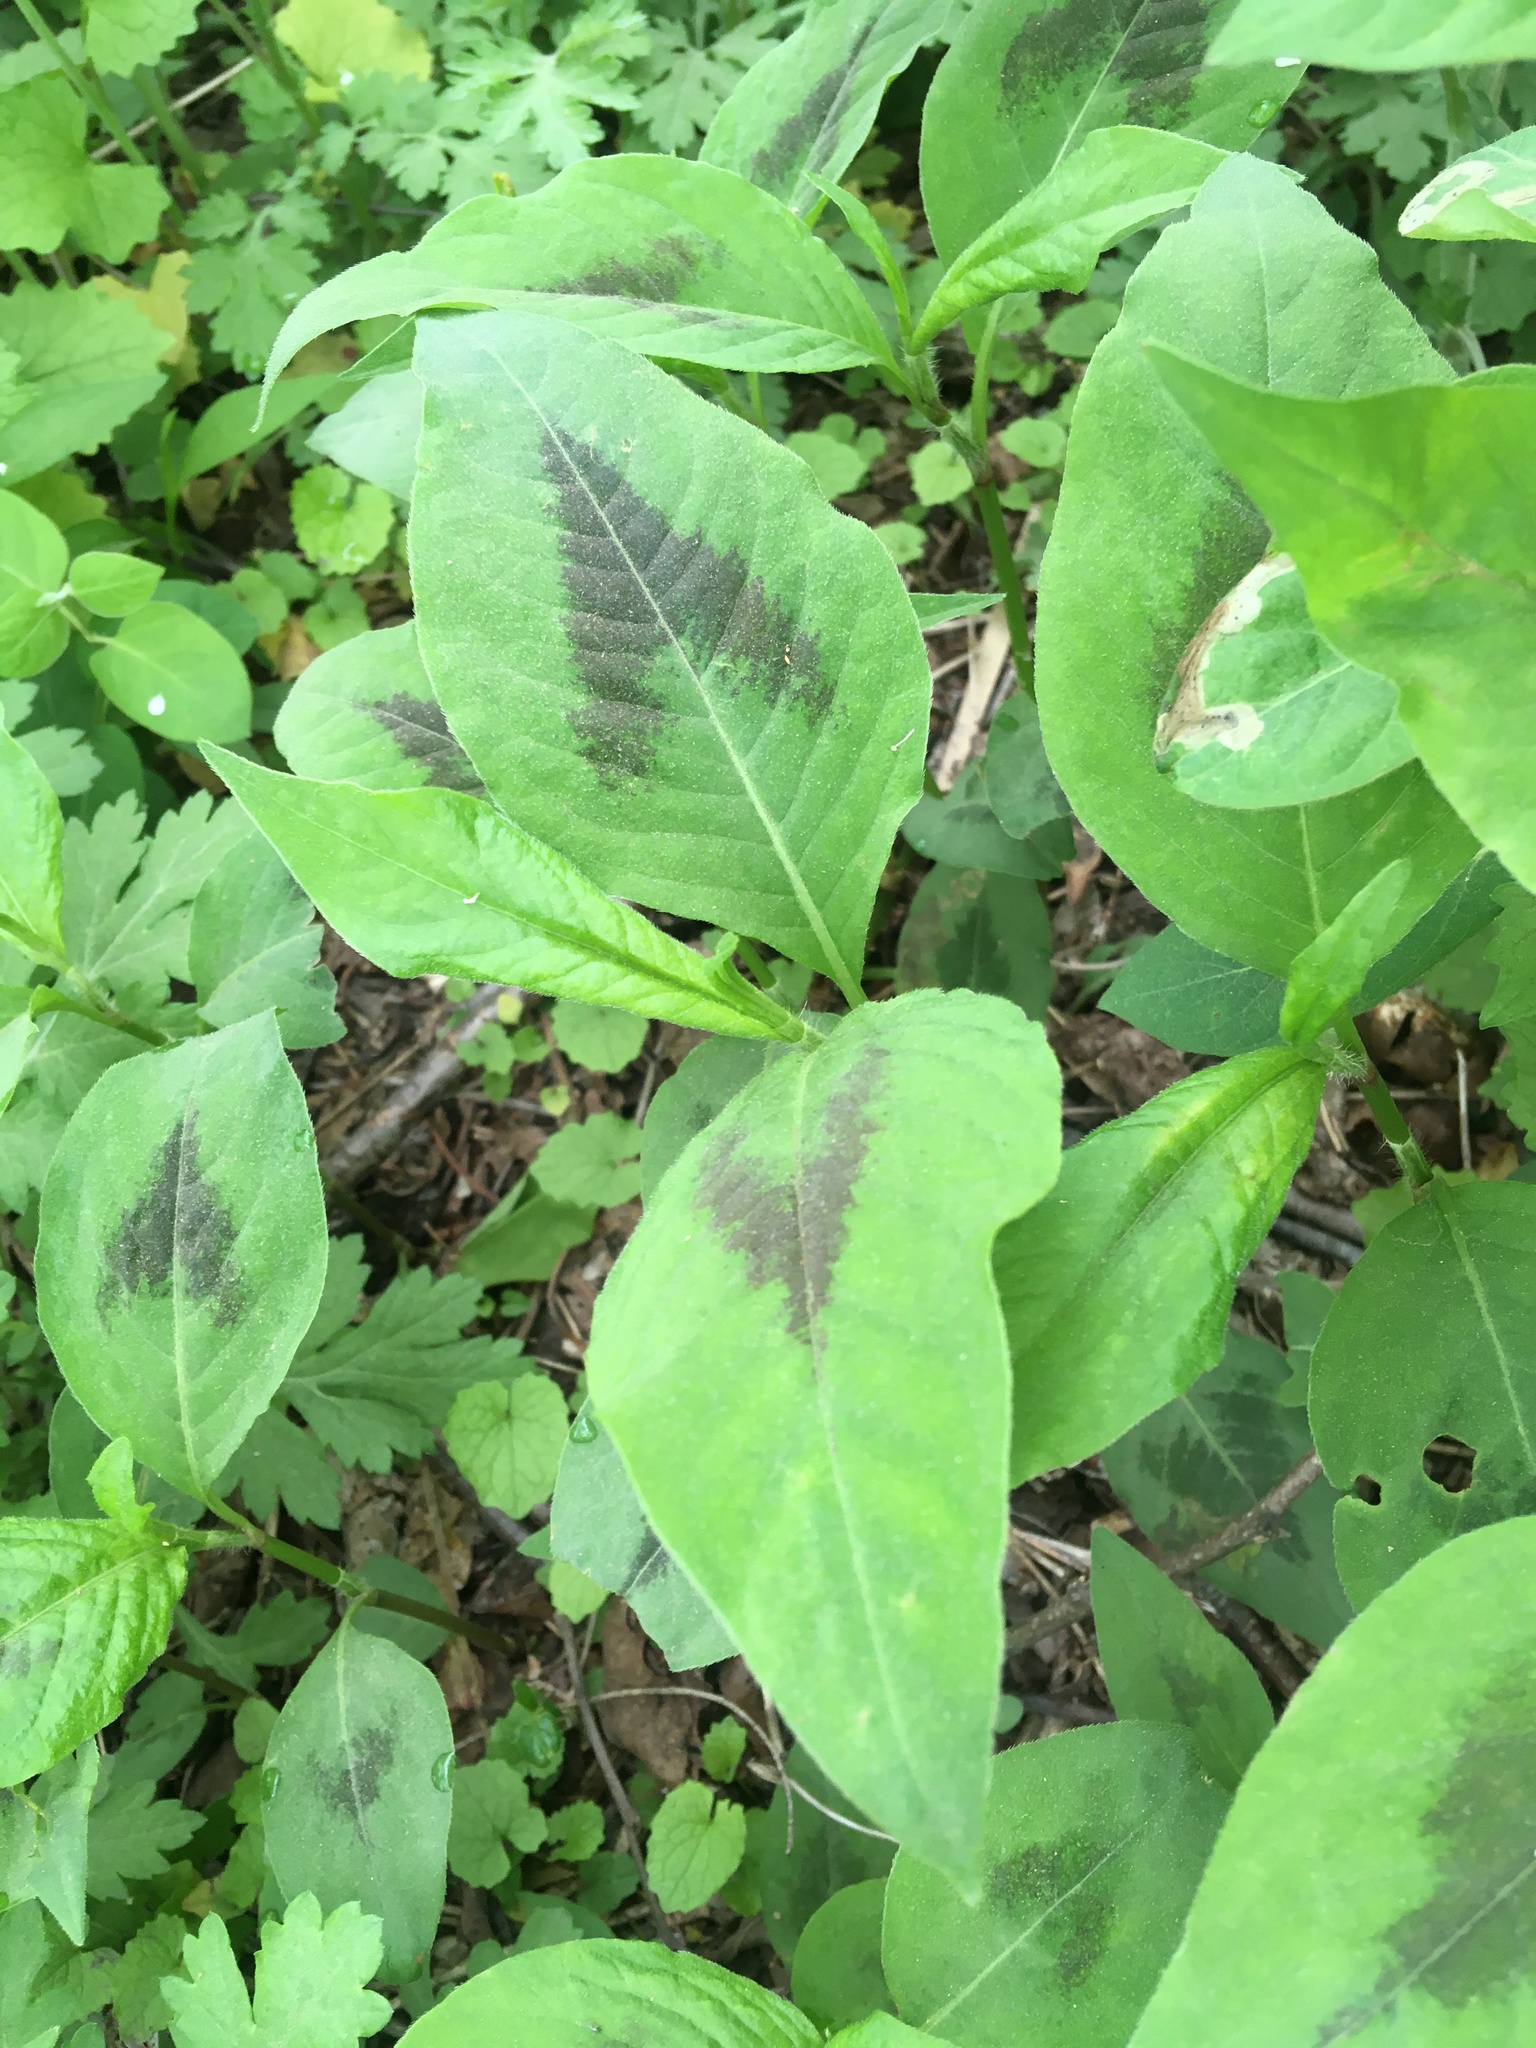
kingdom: Plantae
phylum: Tracheophyta
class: Magnoliopsida
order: Caryophyllales
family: Polygonaceae
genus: Persicaria
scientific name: Persicaria virginiana
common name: Jumpseed
